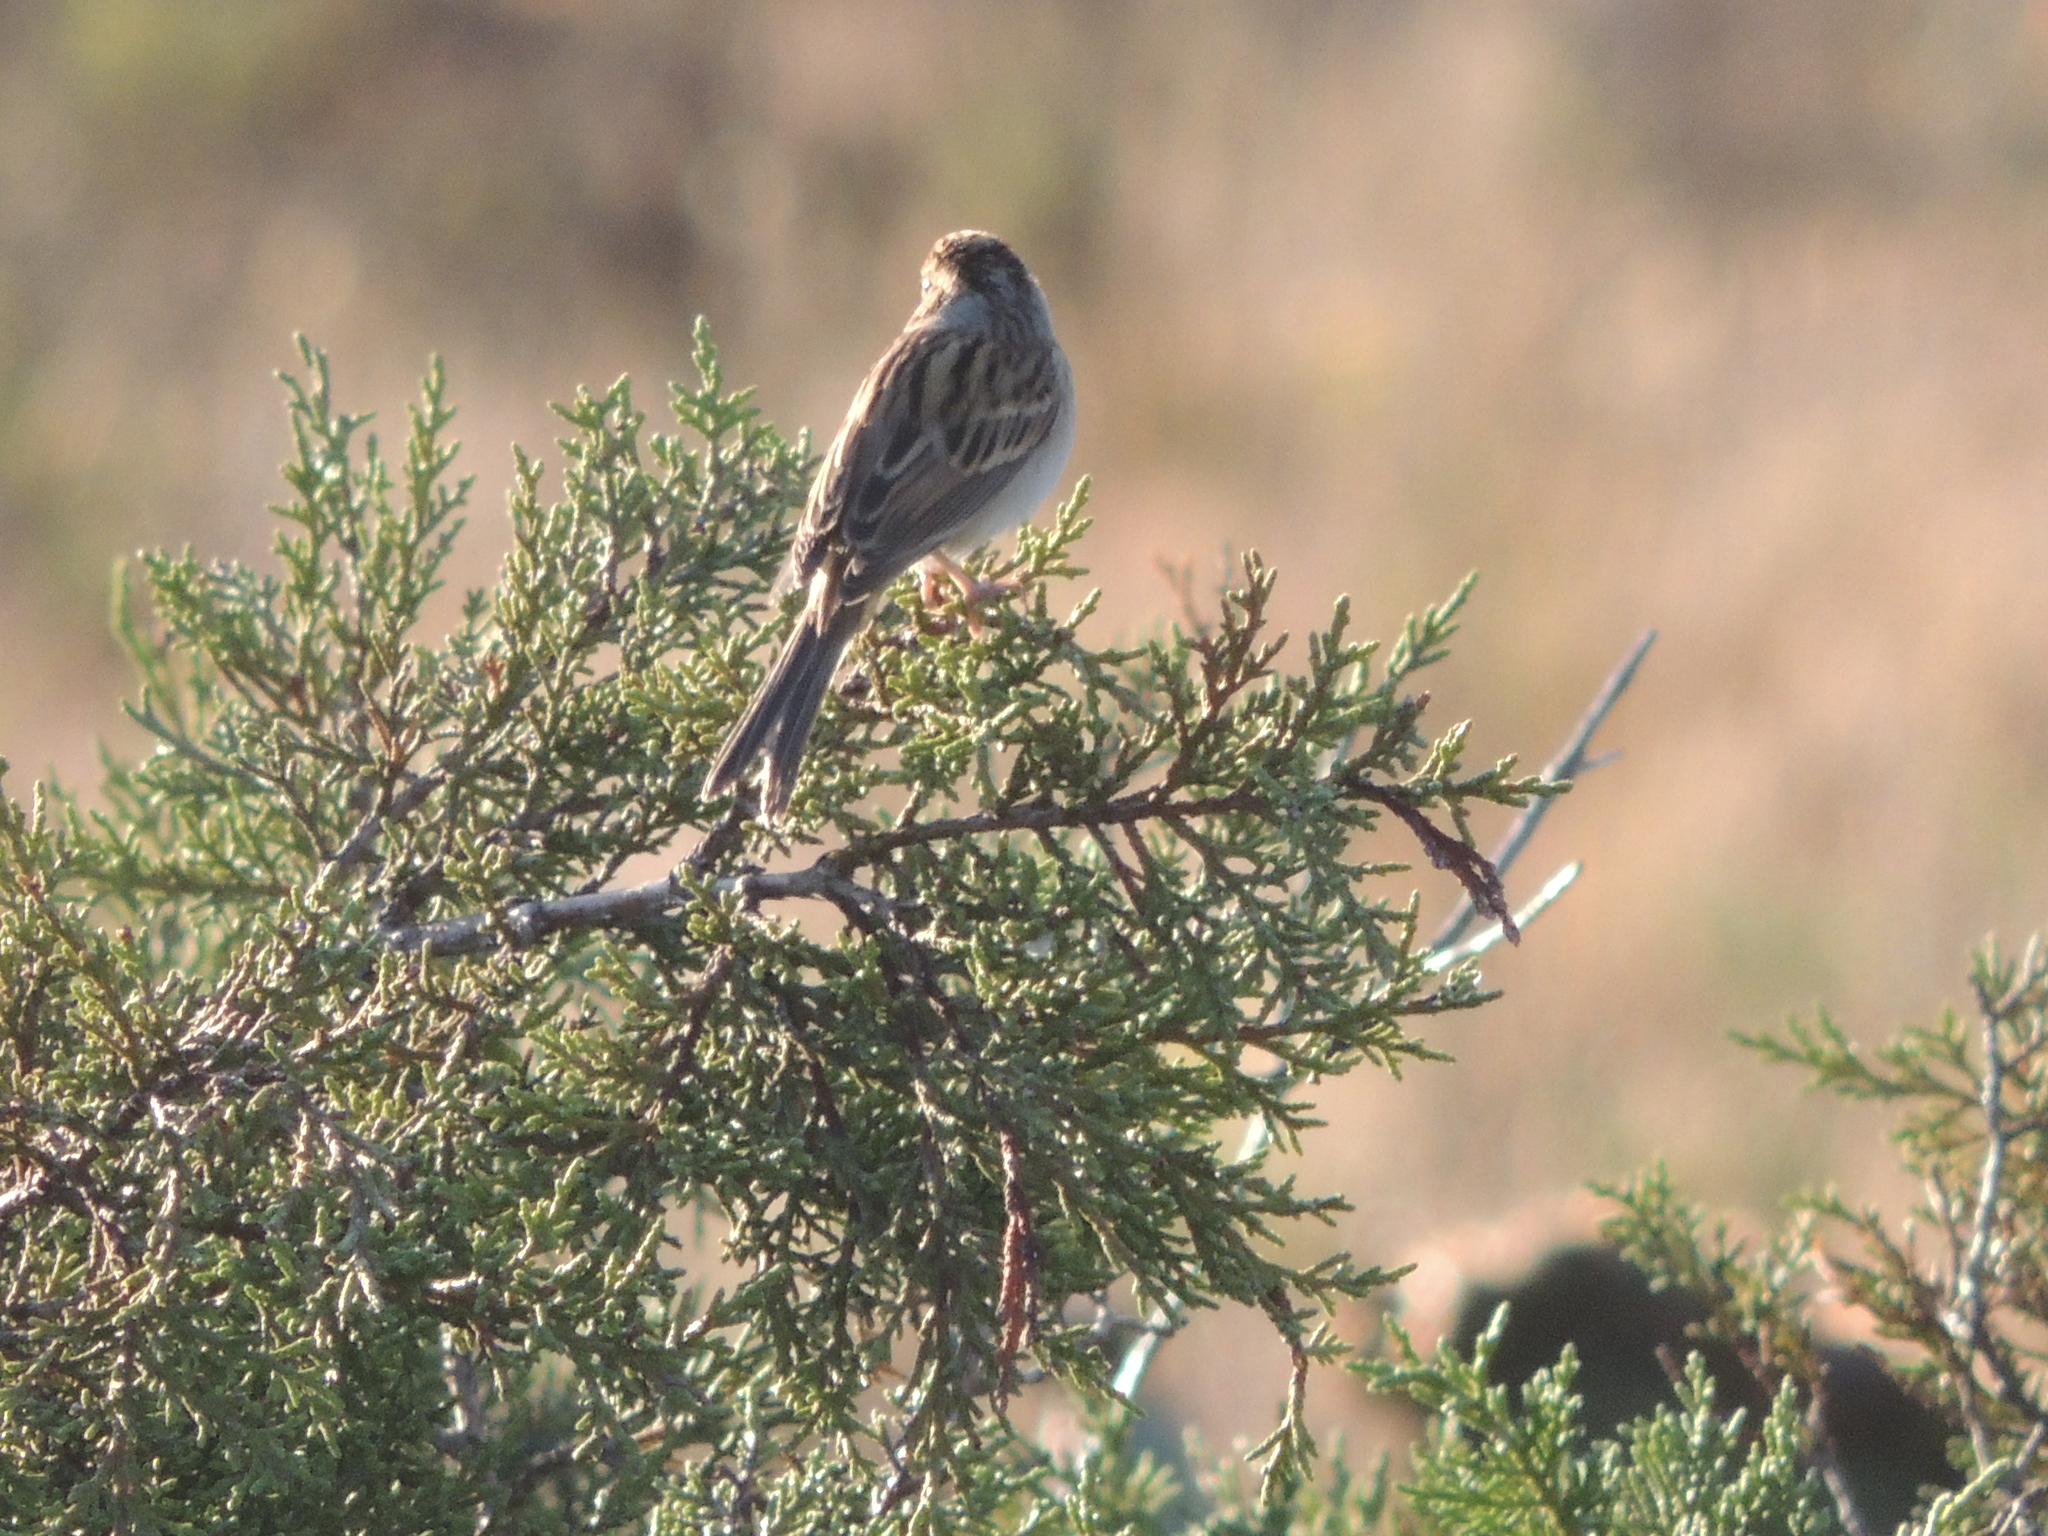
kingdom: Animalia
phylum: Chordata
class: Aves
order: Passeriformes
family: Passerellidae
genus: Spizella
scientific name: Spizella pallida
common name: Clay-colored sparrow
